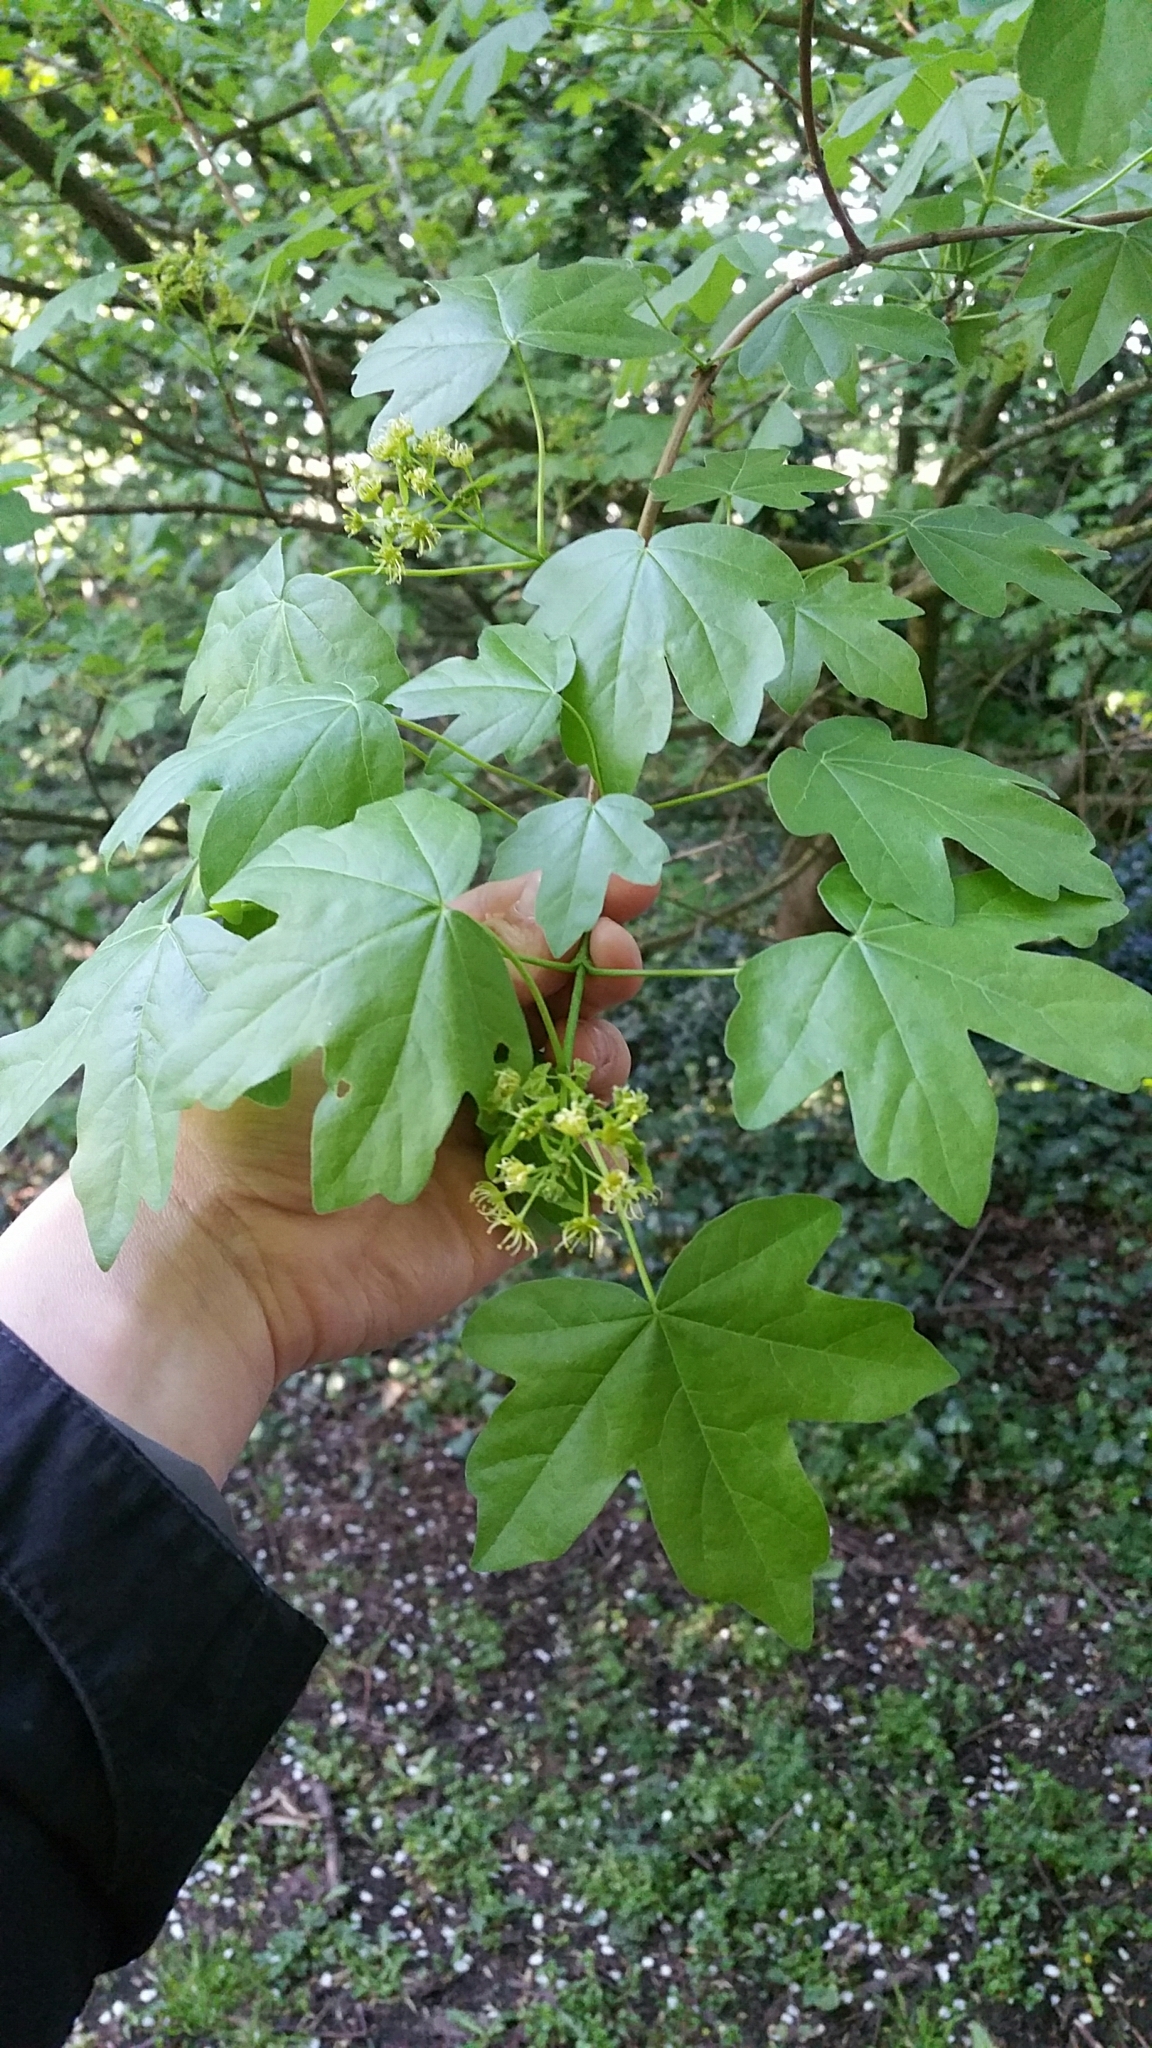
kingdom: Plantae
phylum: Tracheophyta
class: Magnoliopsida
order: Sapindales
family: Sapindaceae
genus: Acer
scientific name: Acer campestre
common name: Field maple
